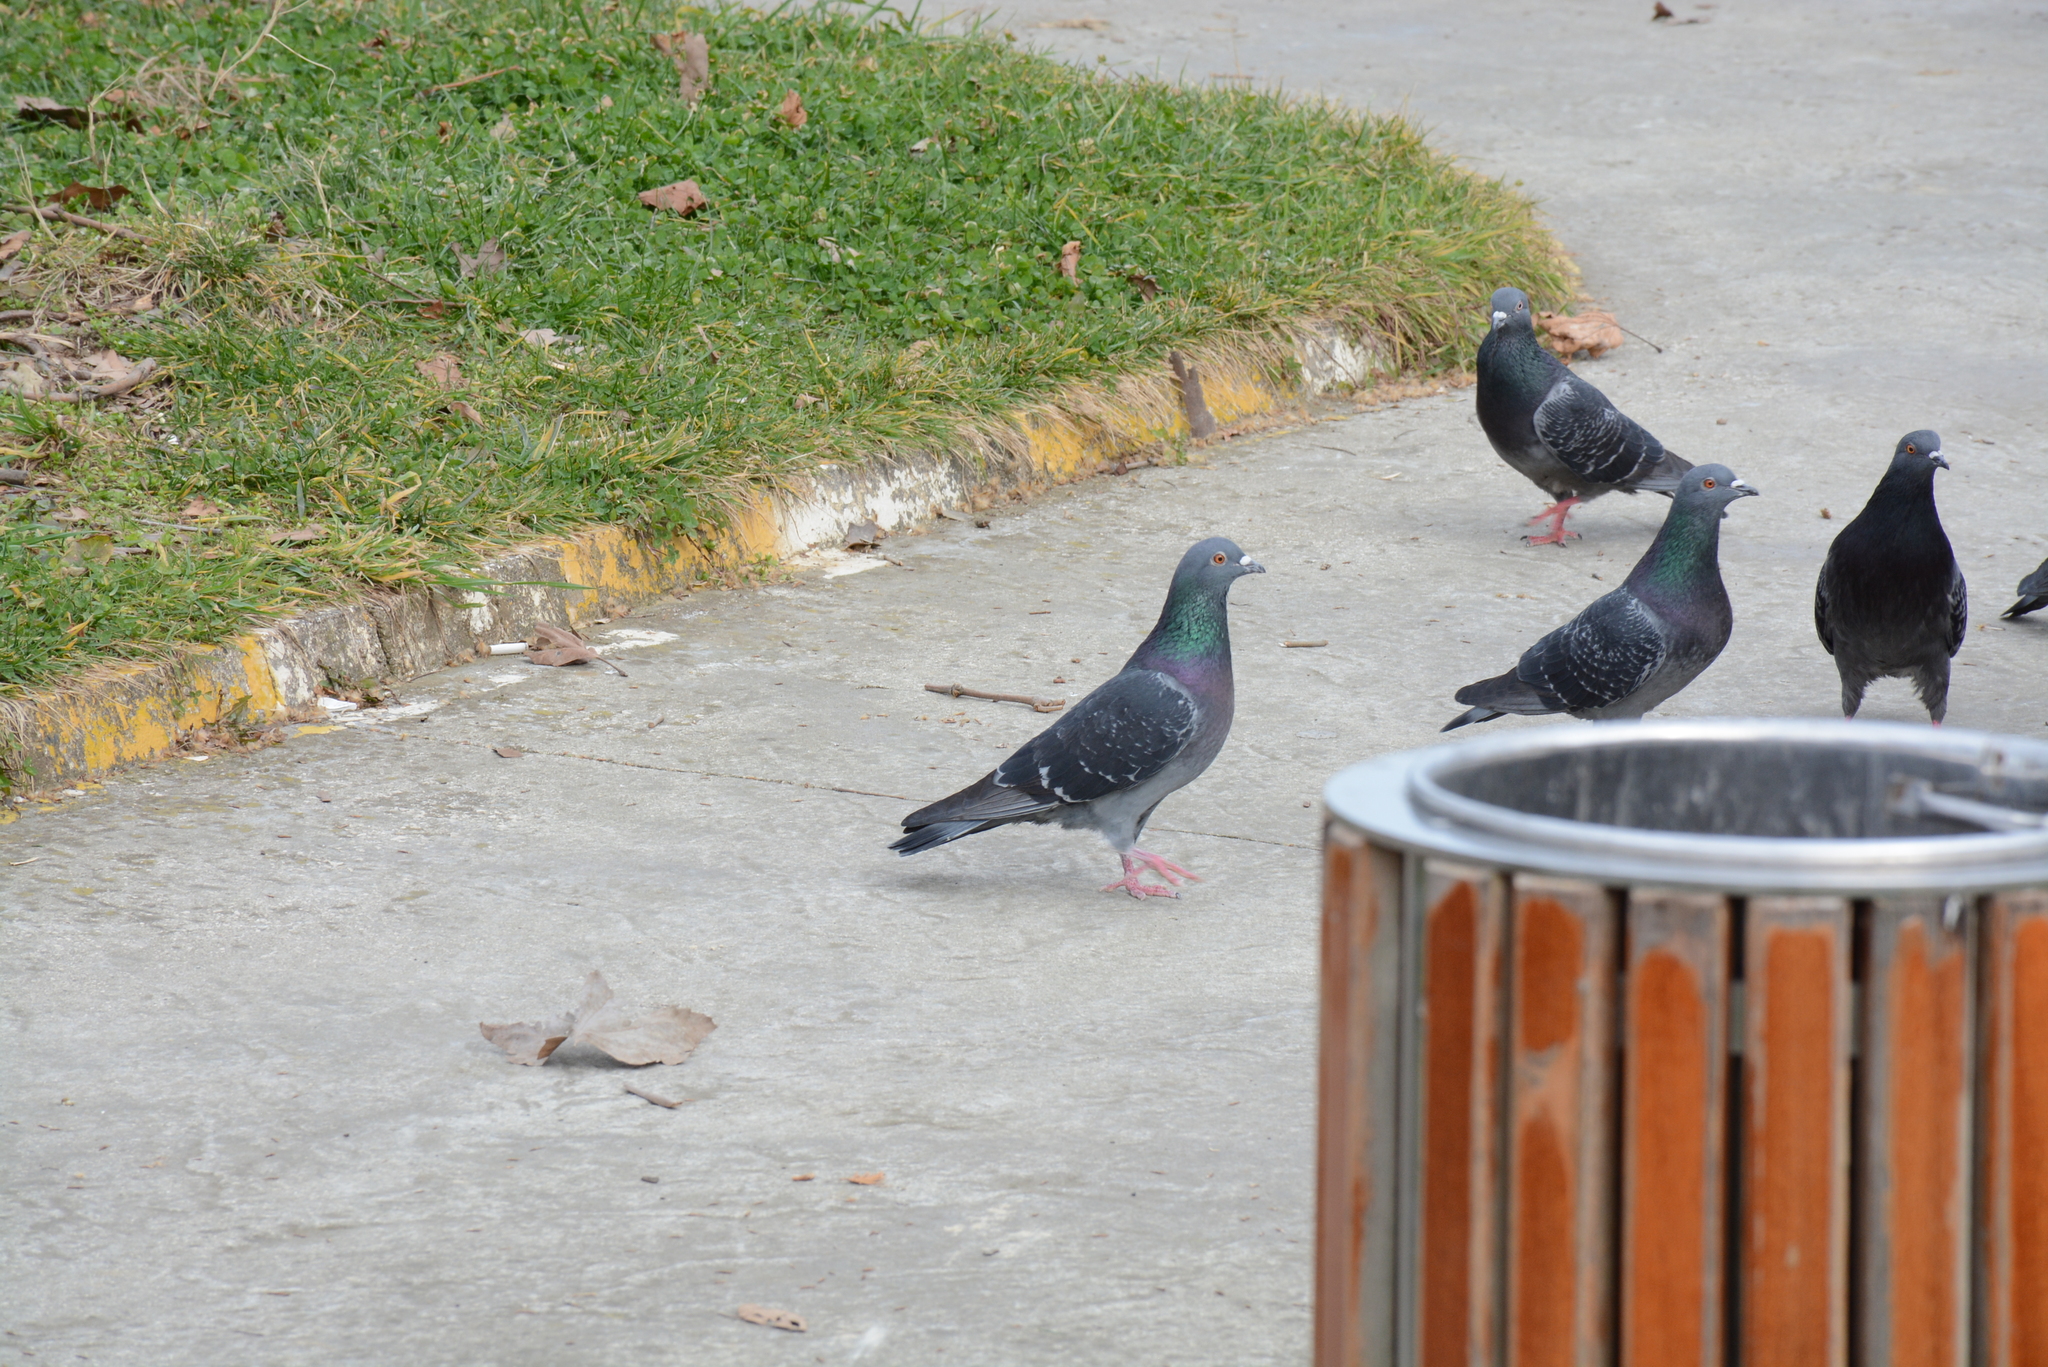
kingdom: Animalia
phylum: Chordata
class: Aves
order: Columbiformes
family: Columbidae
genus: Columba
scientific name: Columba livia
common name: Rock pigeon
